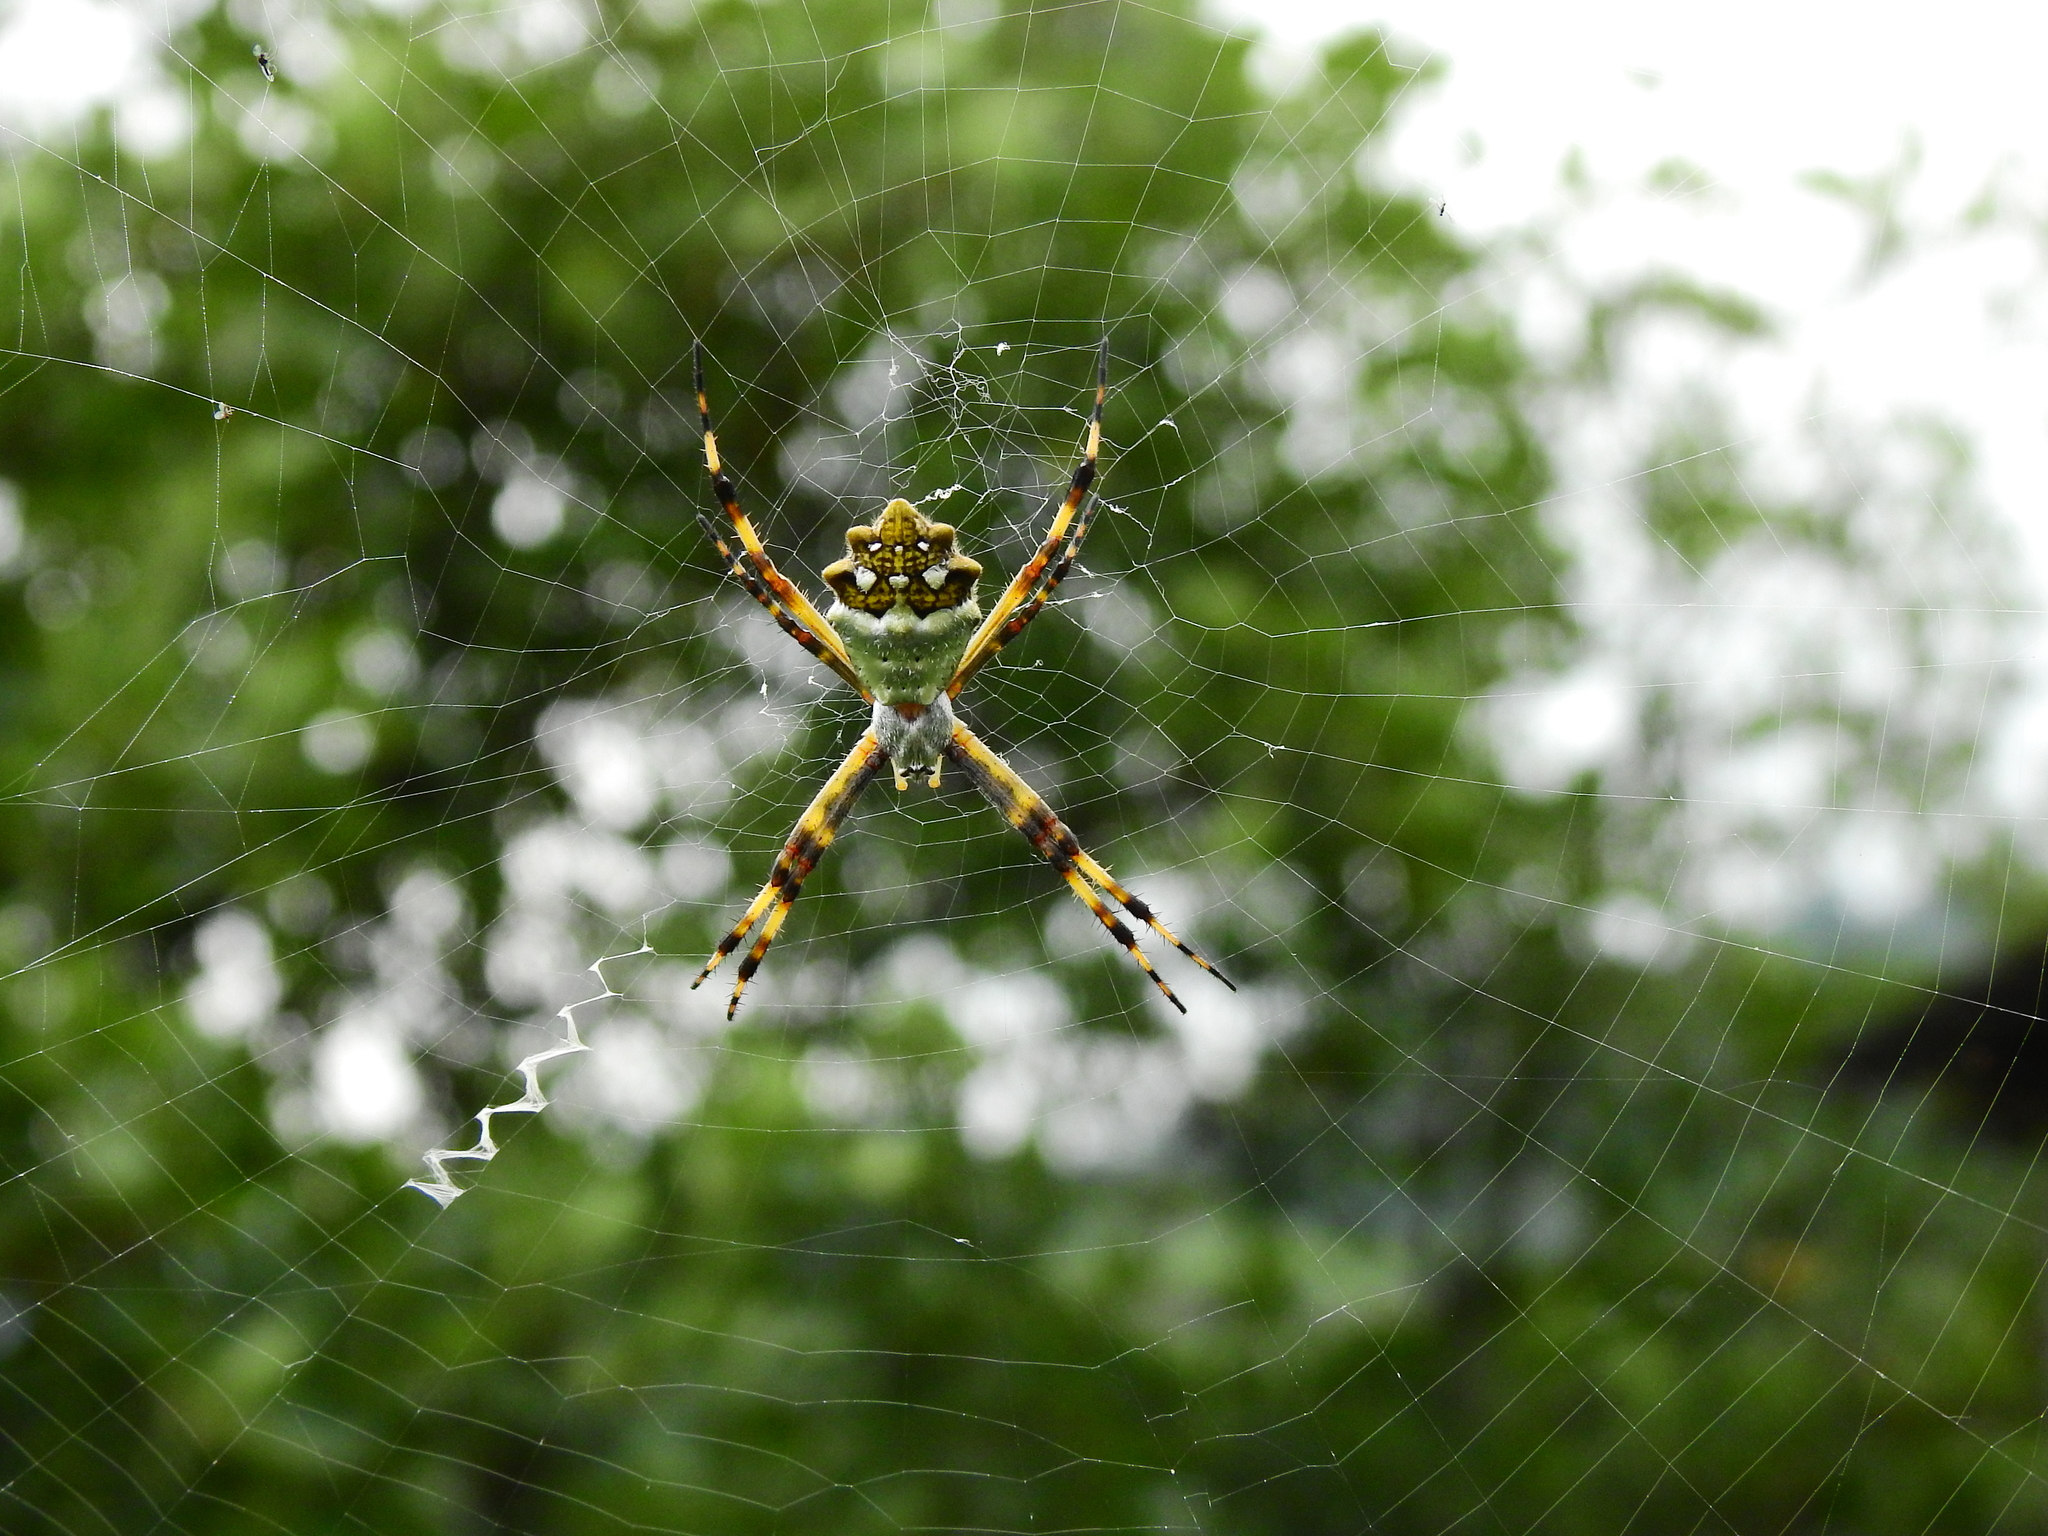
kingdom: Animalia
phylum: Arthropoda
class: Arachnida
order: Araneae
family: Araneidae
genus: Argiope
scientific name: Argiope argentata
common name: Orb weavers
